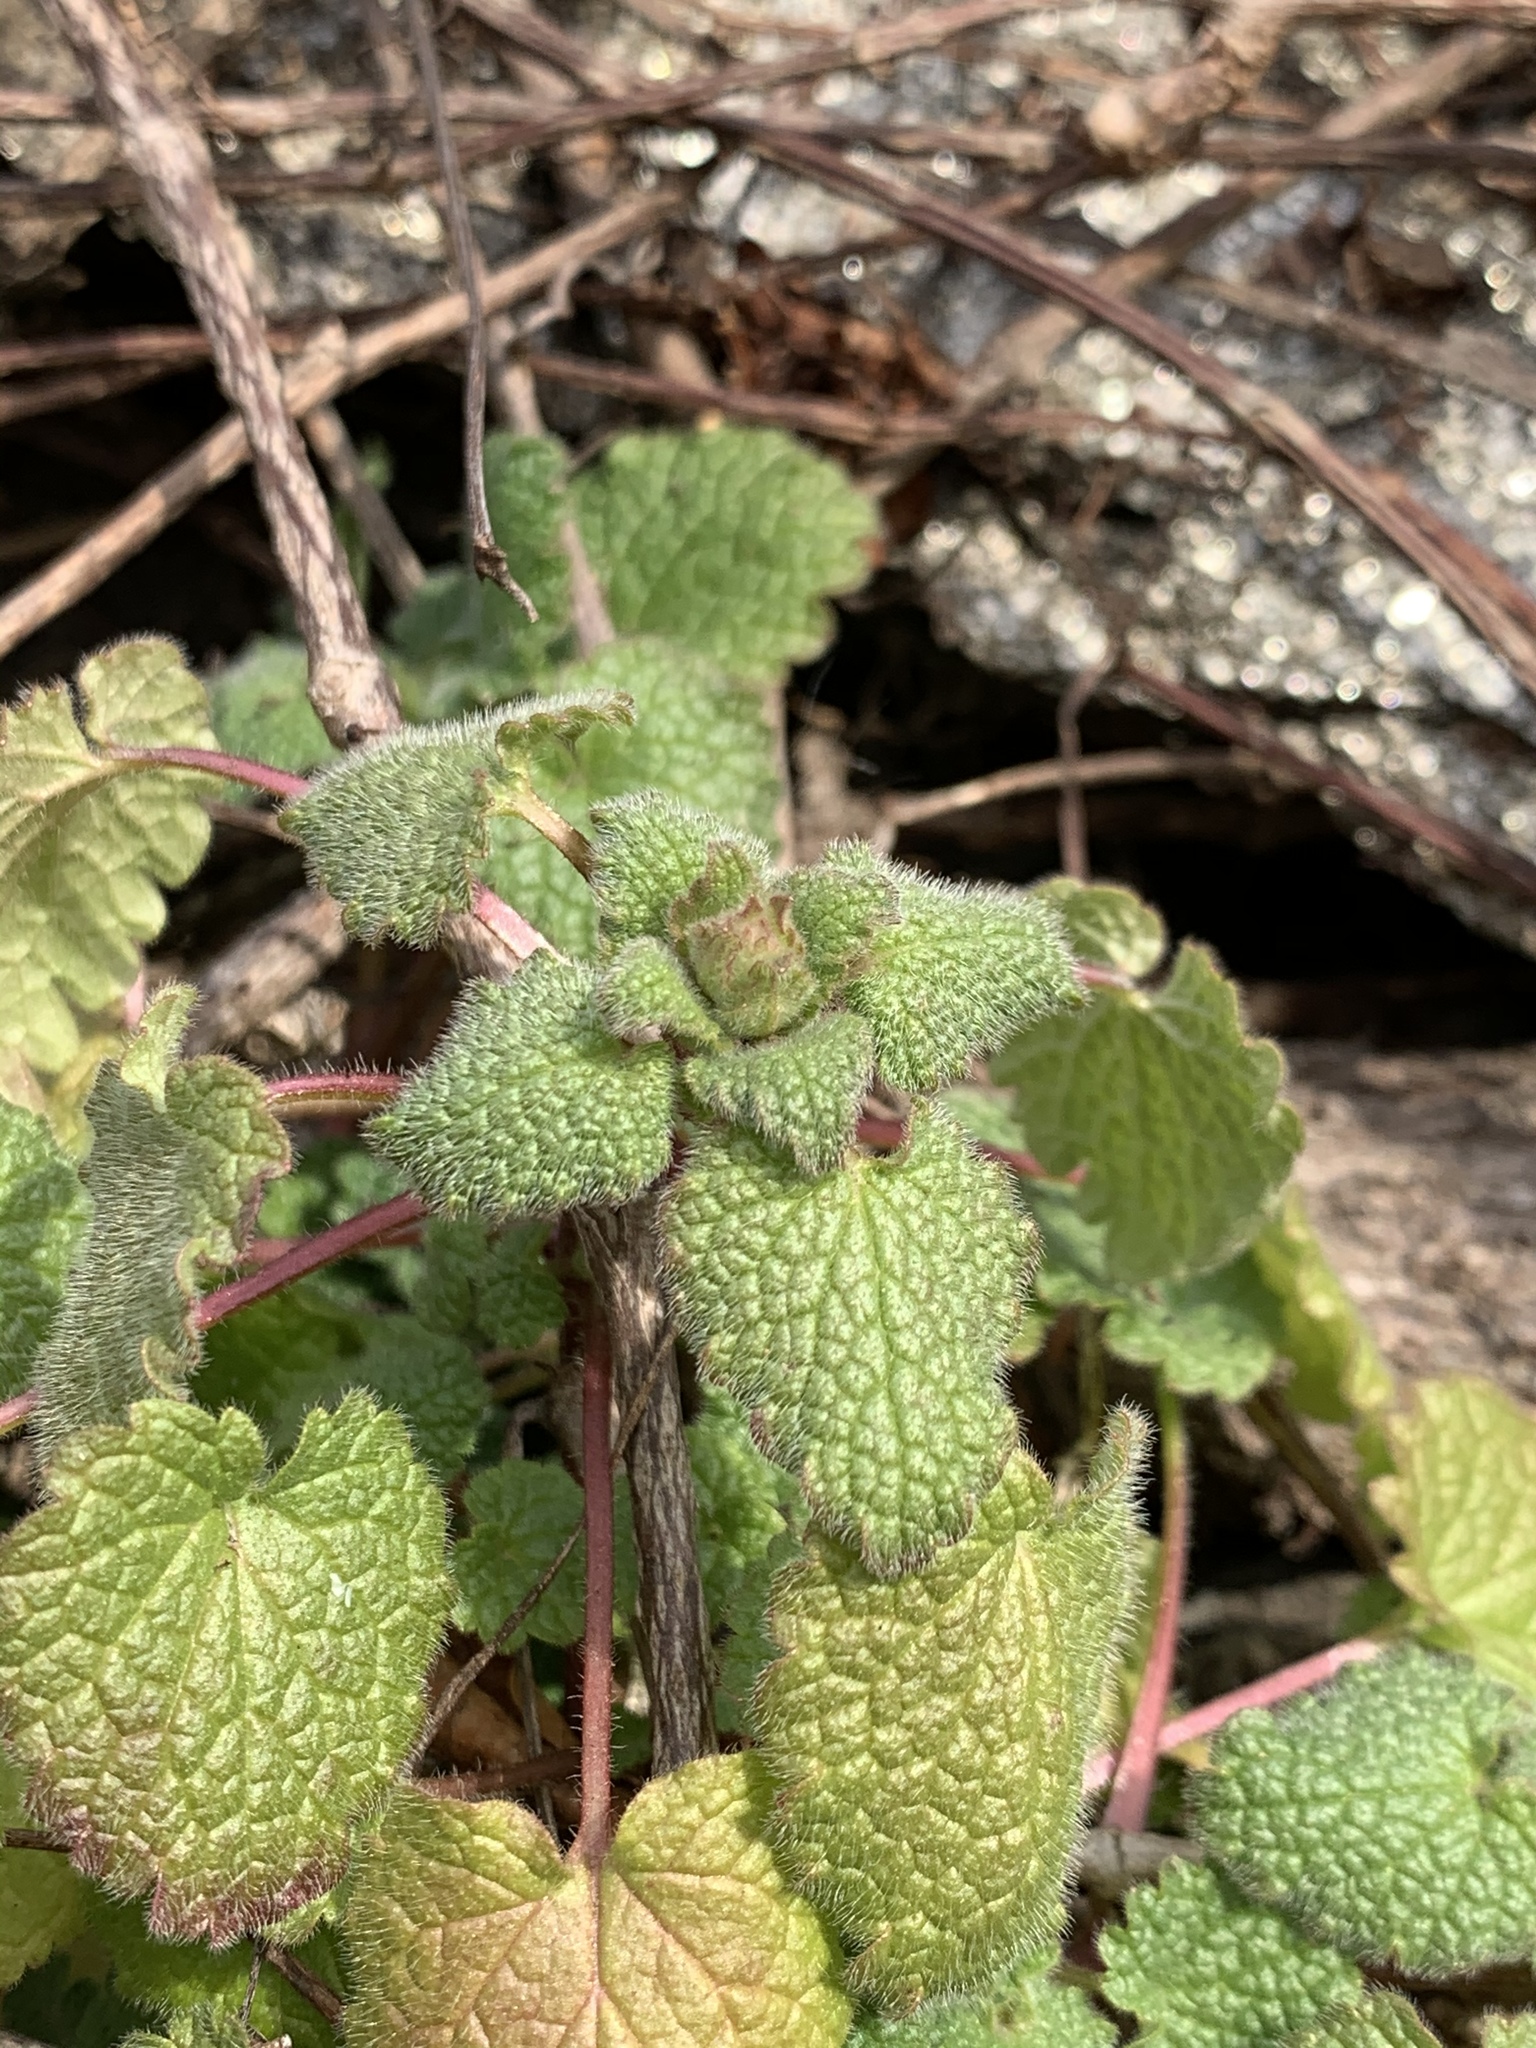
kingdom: Plantae
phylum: Tracheophyta
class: Magnoliopsida
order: Lamiales
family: Lamiaceae
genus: Lamium
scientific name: Lamium purpureum
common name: Red dead-nettle
